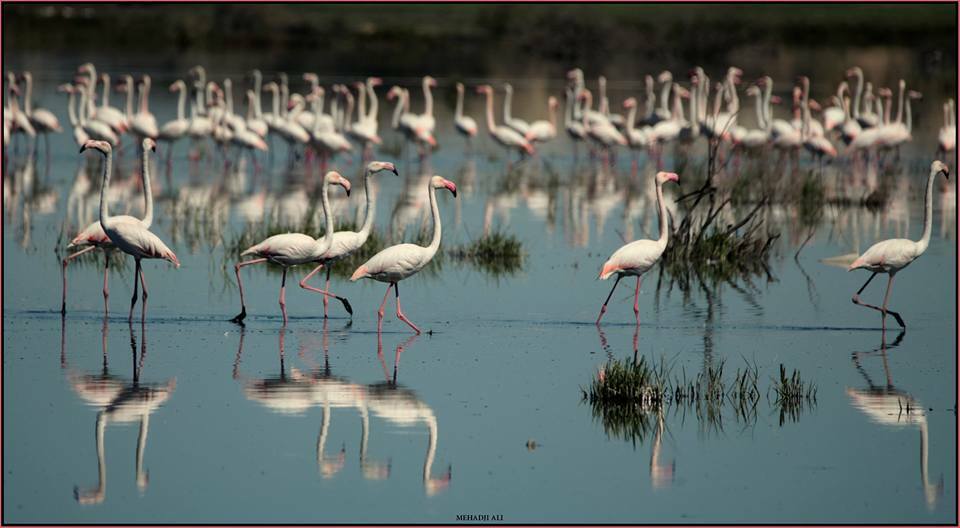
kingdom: Animalia
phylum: Chordata
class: Aves
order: Phoenicopteriformes
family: Phoenicopteridae
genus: Phoenicopterus
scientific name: Phoenicopterus roseus
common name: Greater flamingo
